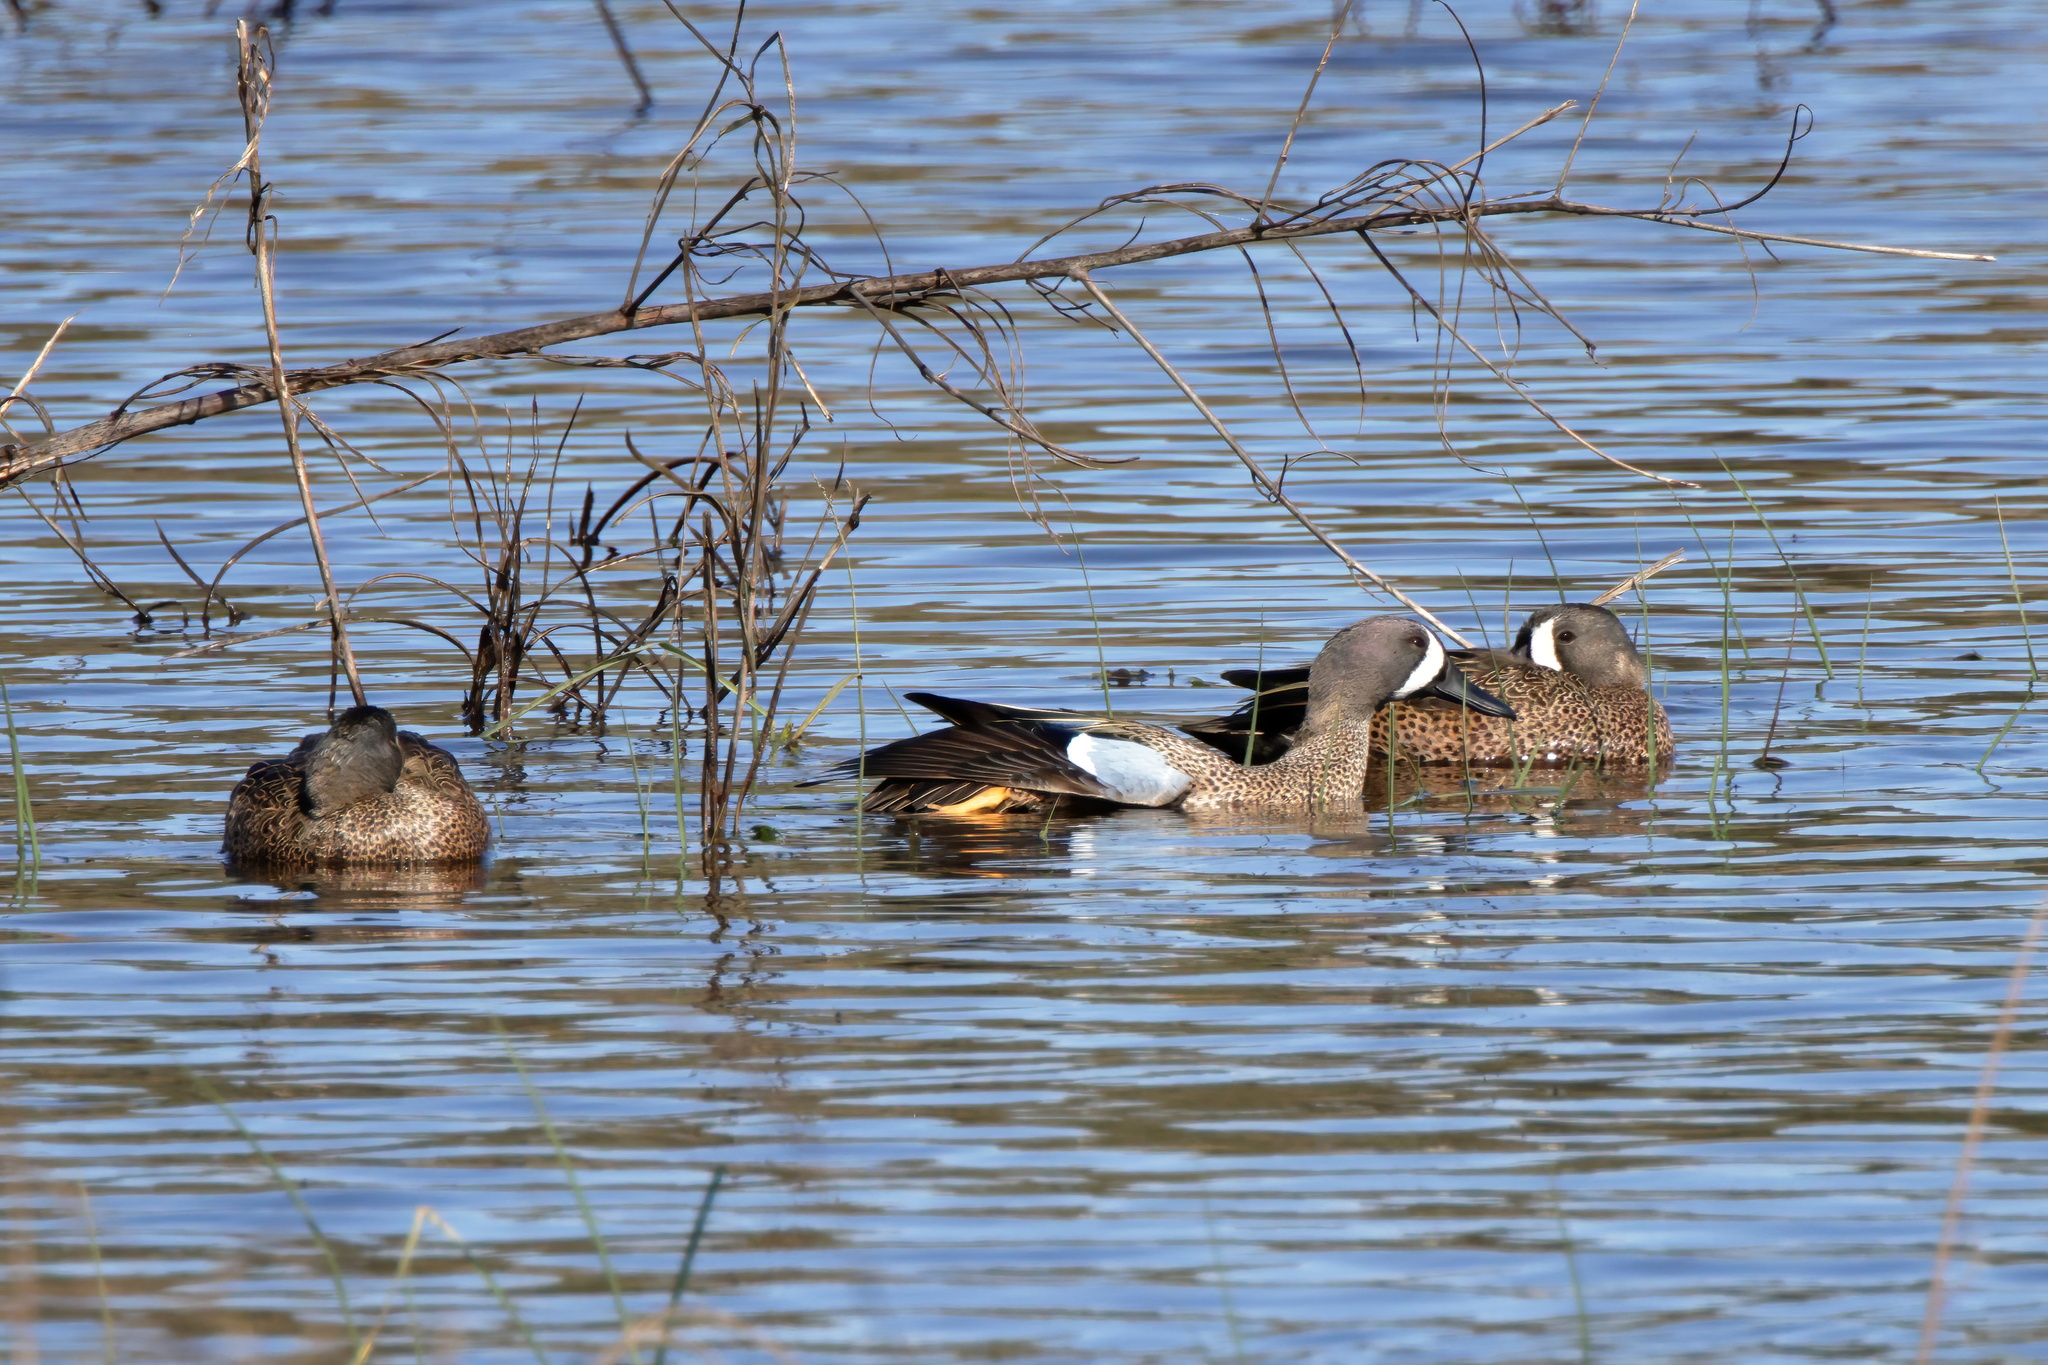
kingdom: Animalia
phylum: Chordata
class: Aves
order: Anseriformes
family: Anatidae
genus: Spatula
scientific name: Spatula discors
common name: Blue-winged teal
